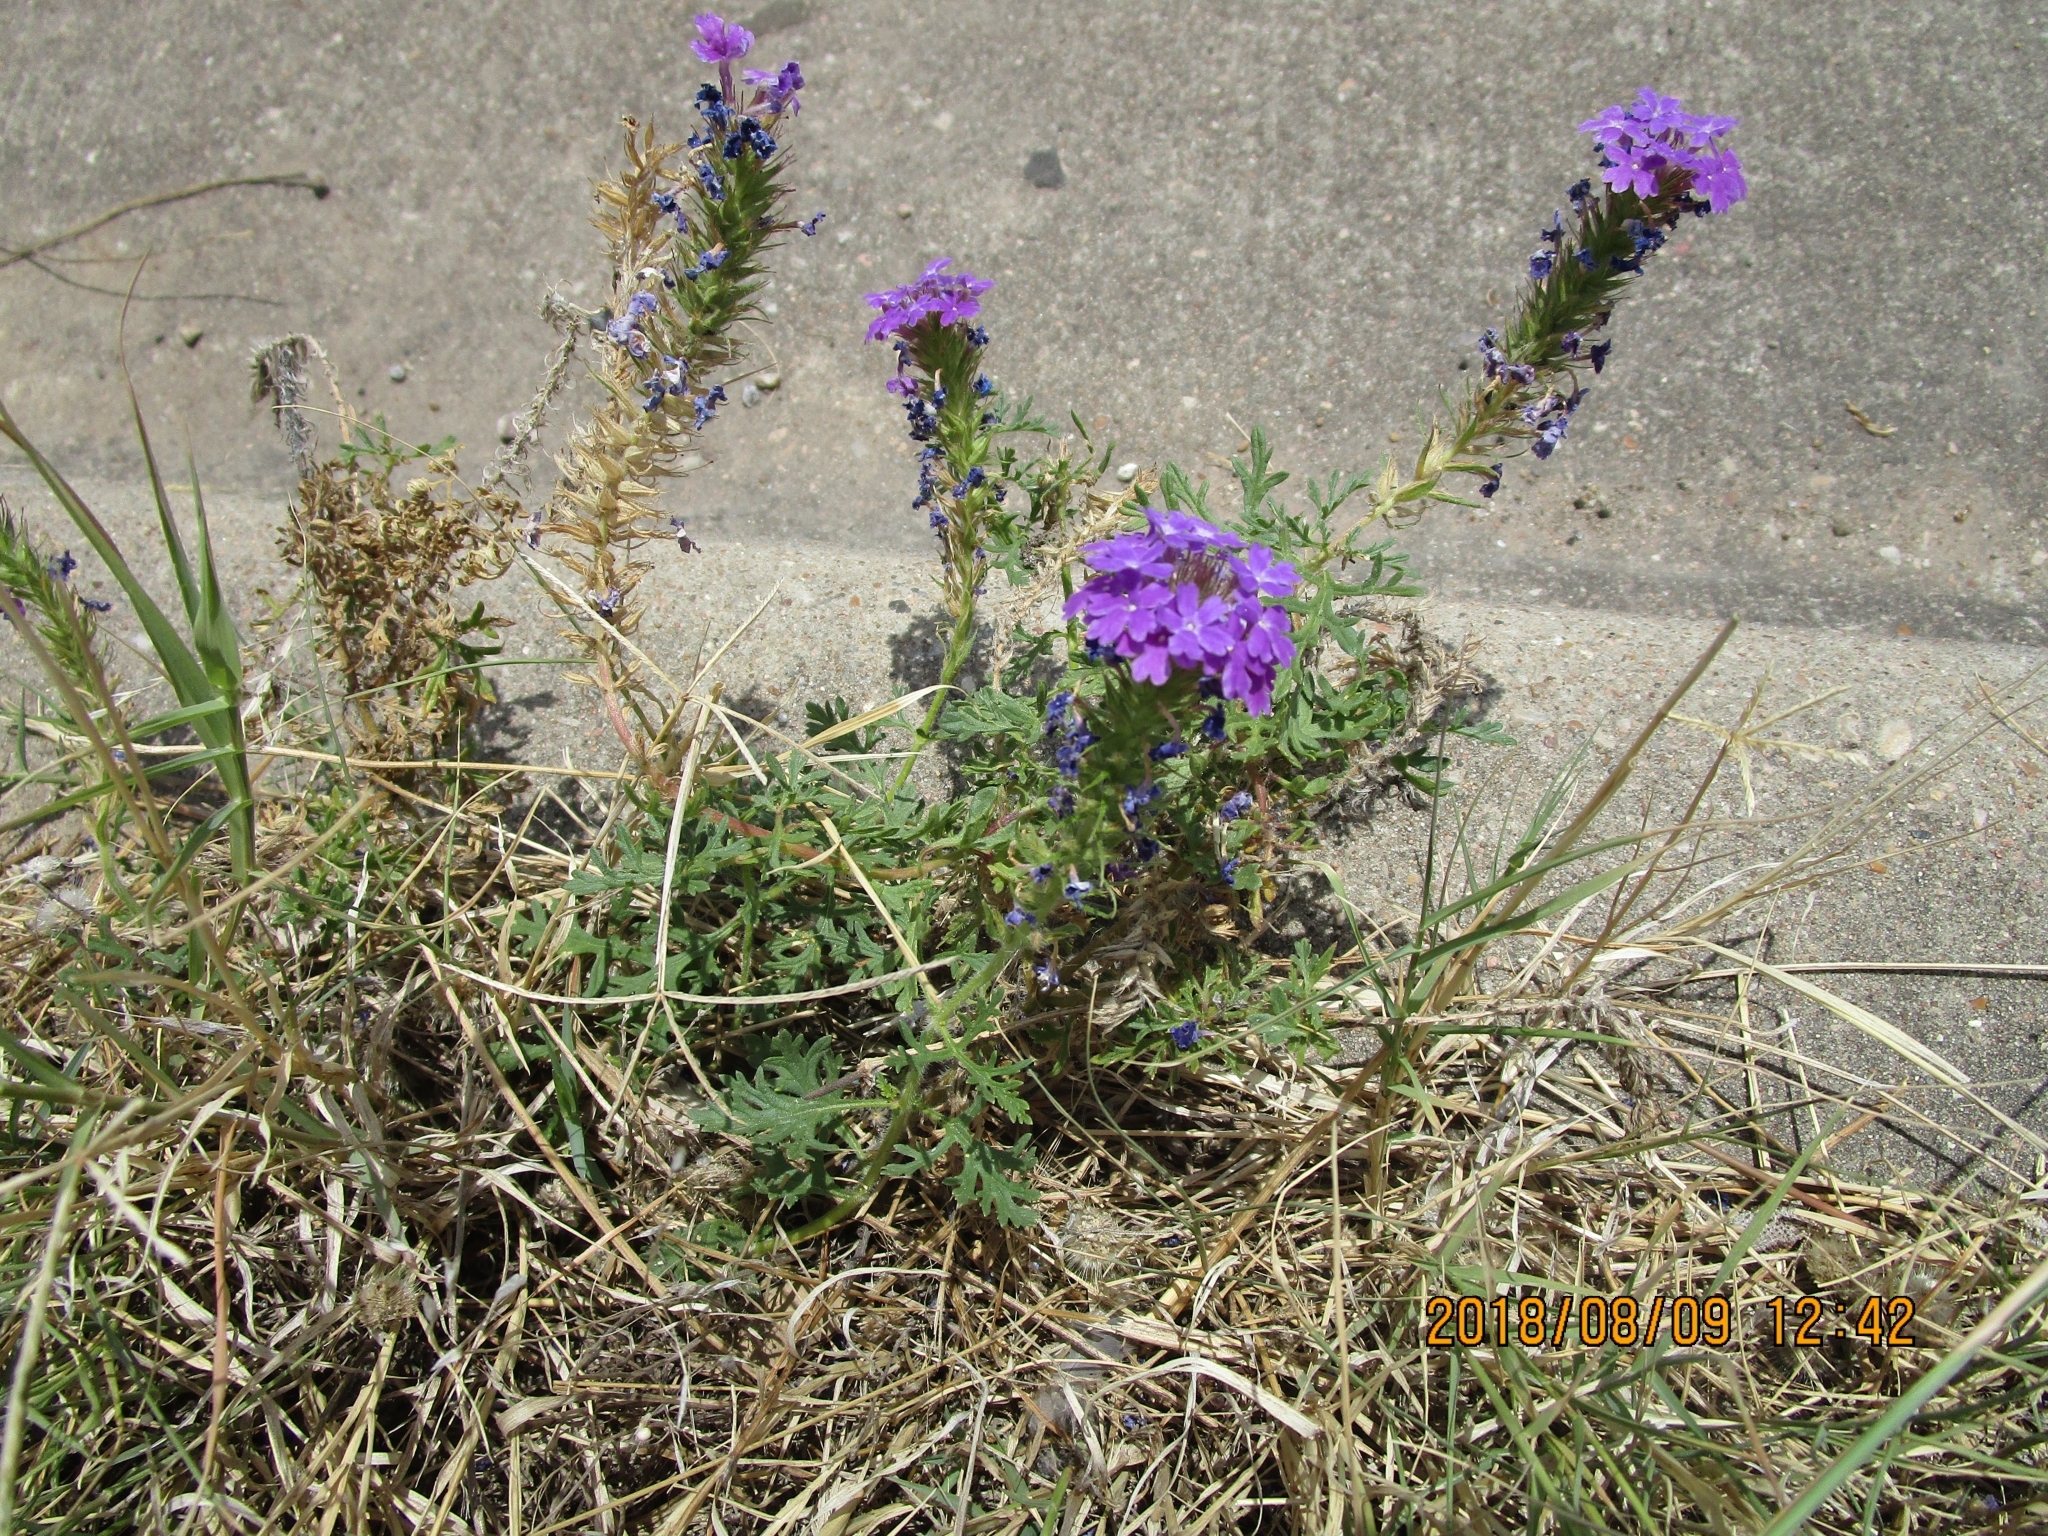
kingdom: Plantae
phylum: Tracheophyta
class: Magnoliopsida
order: Lamiales
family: Verbenaceae
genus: Verbena
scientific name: Verbena bipinnatifida
